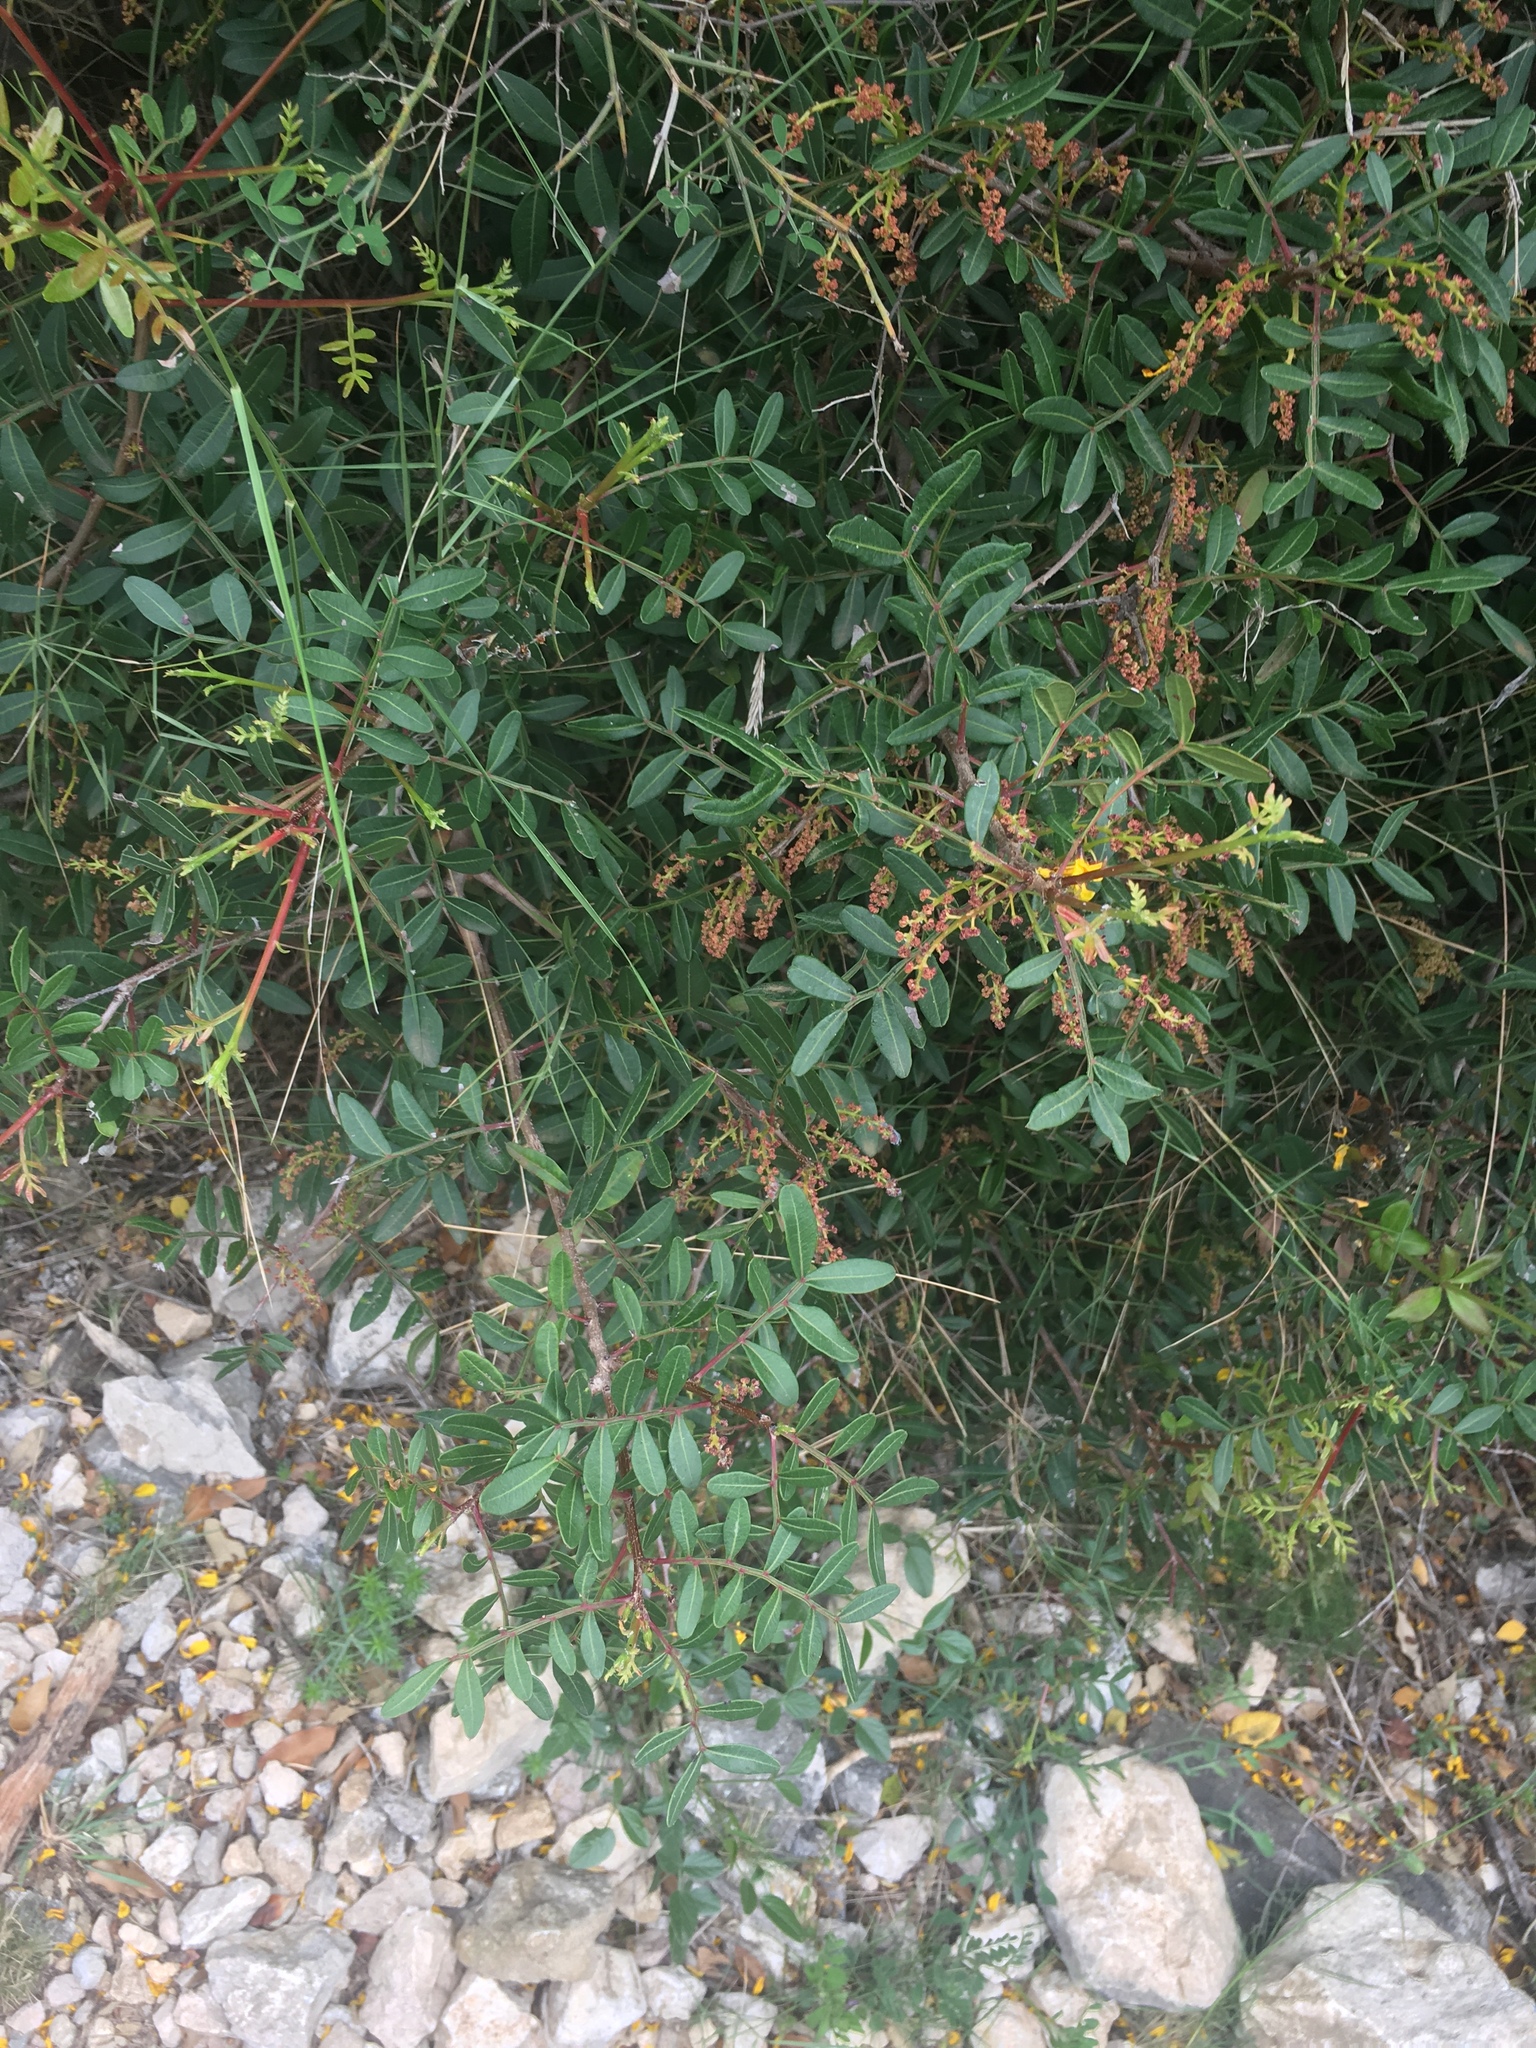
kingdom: Plantae
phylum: Tracheophyta
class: Magnoliopsida
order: Sapindales
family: Anacardiaceae
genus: Pistacia
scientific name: Pistacia lentiscus
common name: Lentisk
